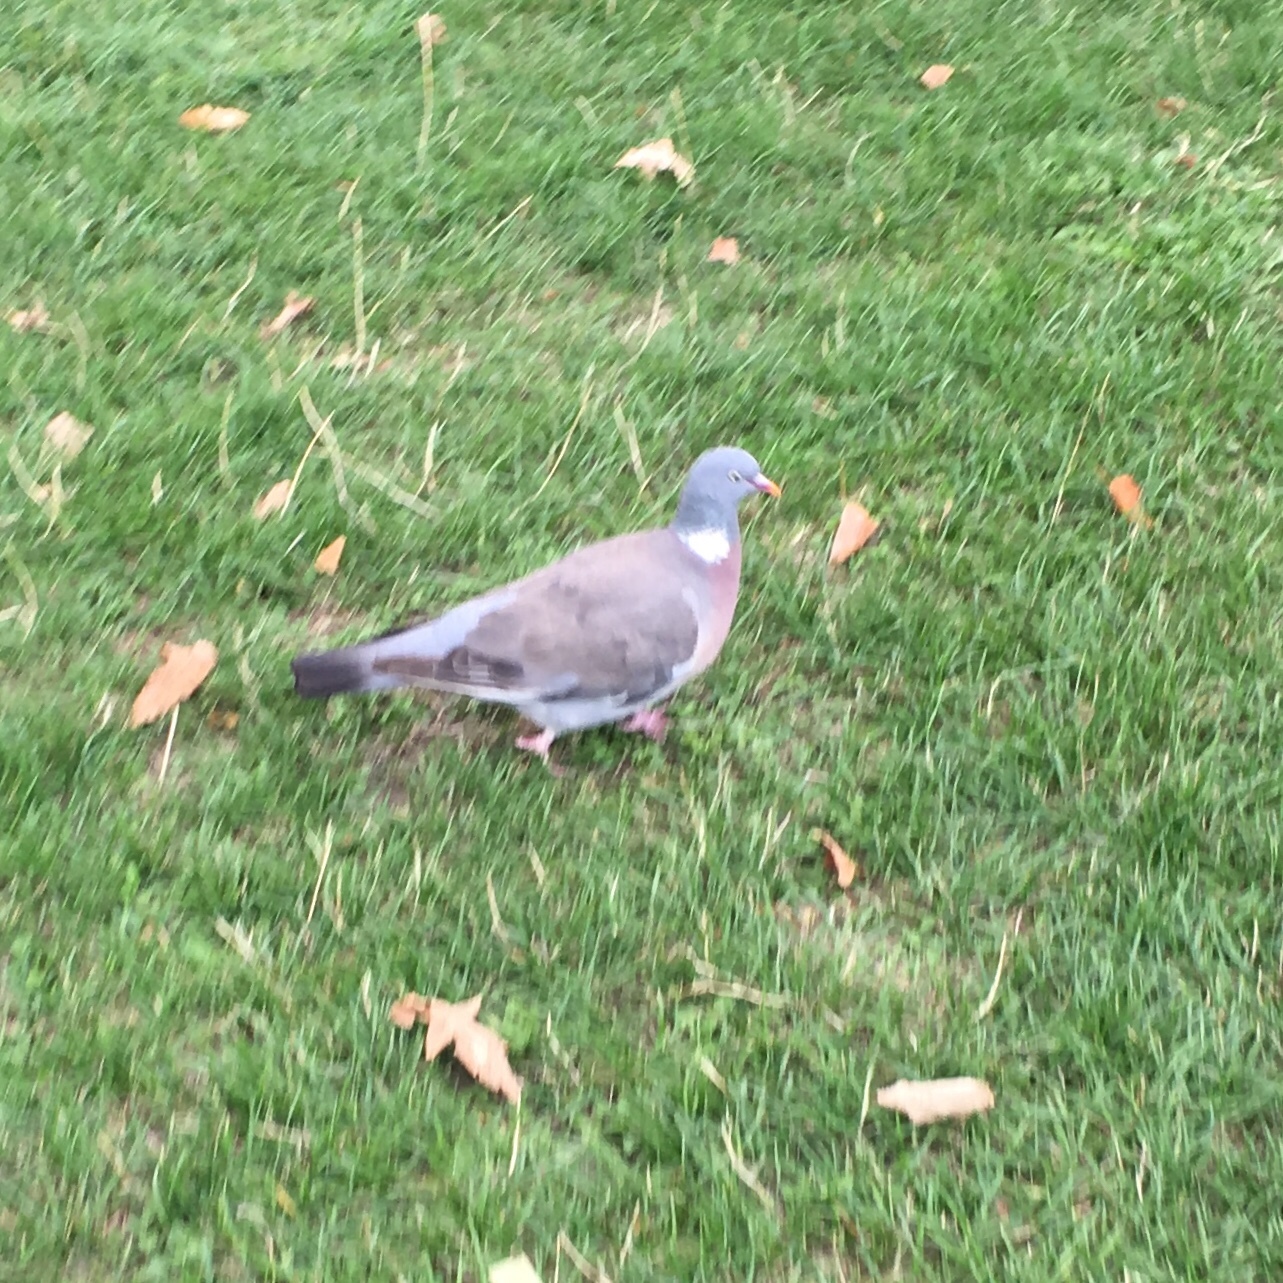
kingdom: Animalia
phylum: Chordata
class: Aves
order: Columbiformes
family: Columbidae
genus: Columba
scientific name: Columba palumbus
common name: Common wood pigeon
